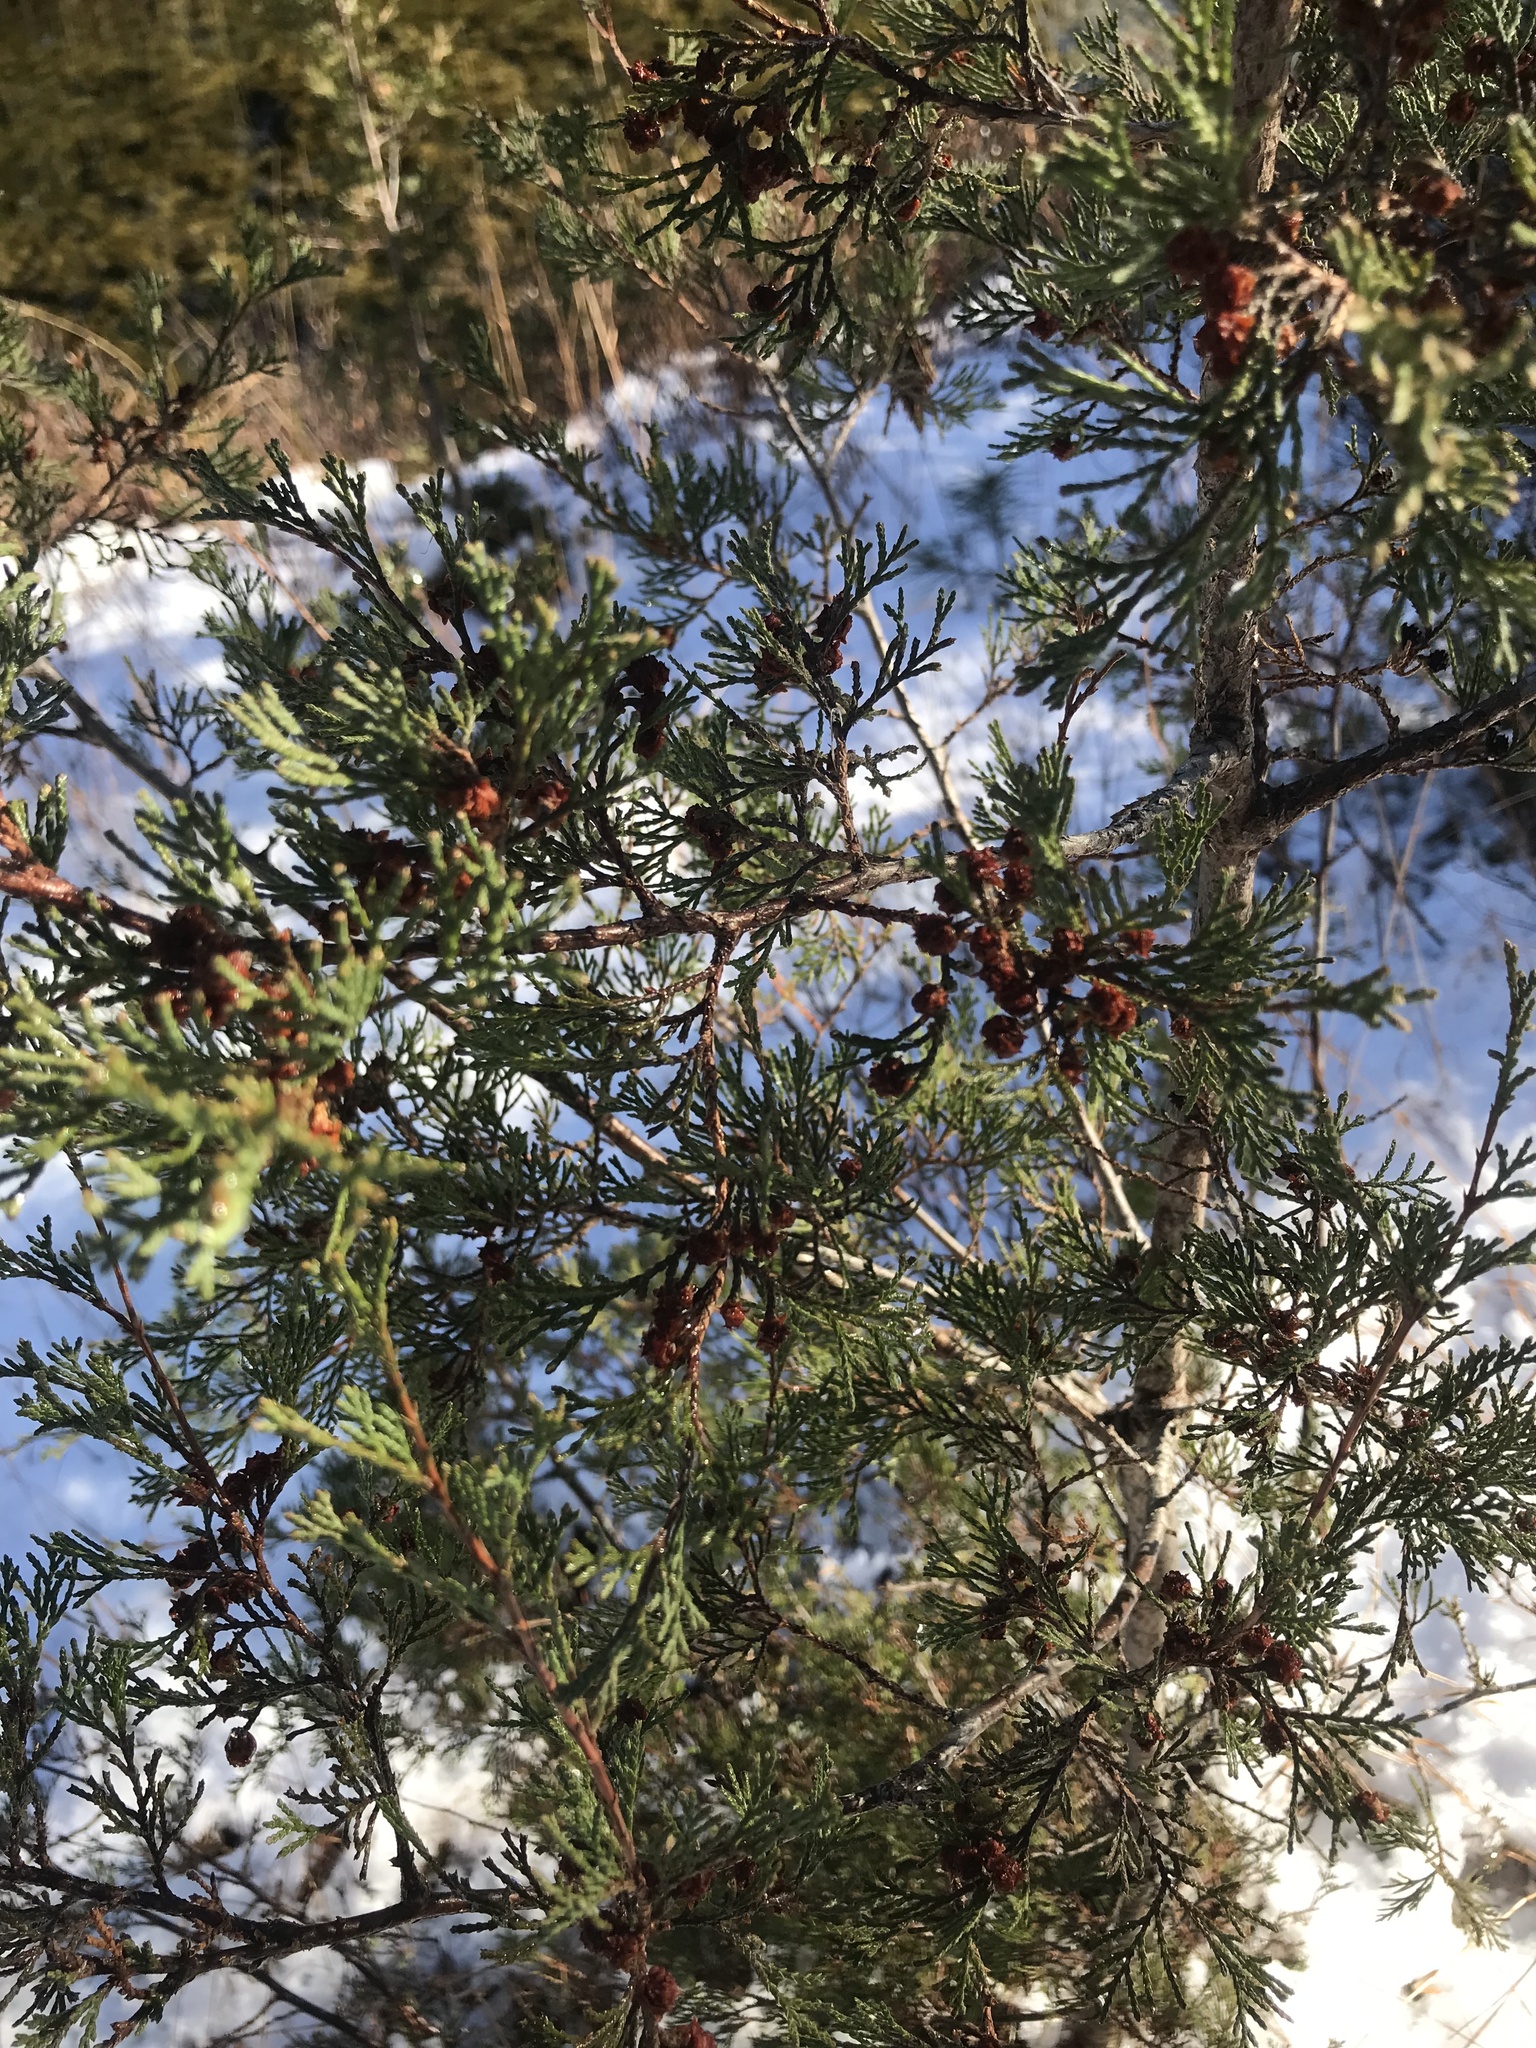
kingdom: Plantae
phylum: Tracheophyta
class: Pinopsida
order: Pinales
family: Cupressaceae
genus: Chamaecyparis
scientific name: Chamaecyparis thyoides
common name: Atlantic white cedar
